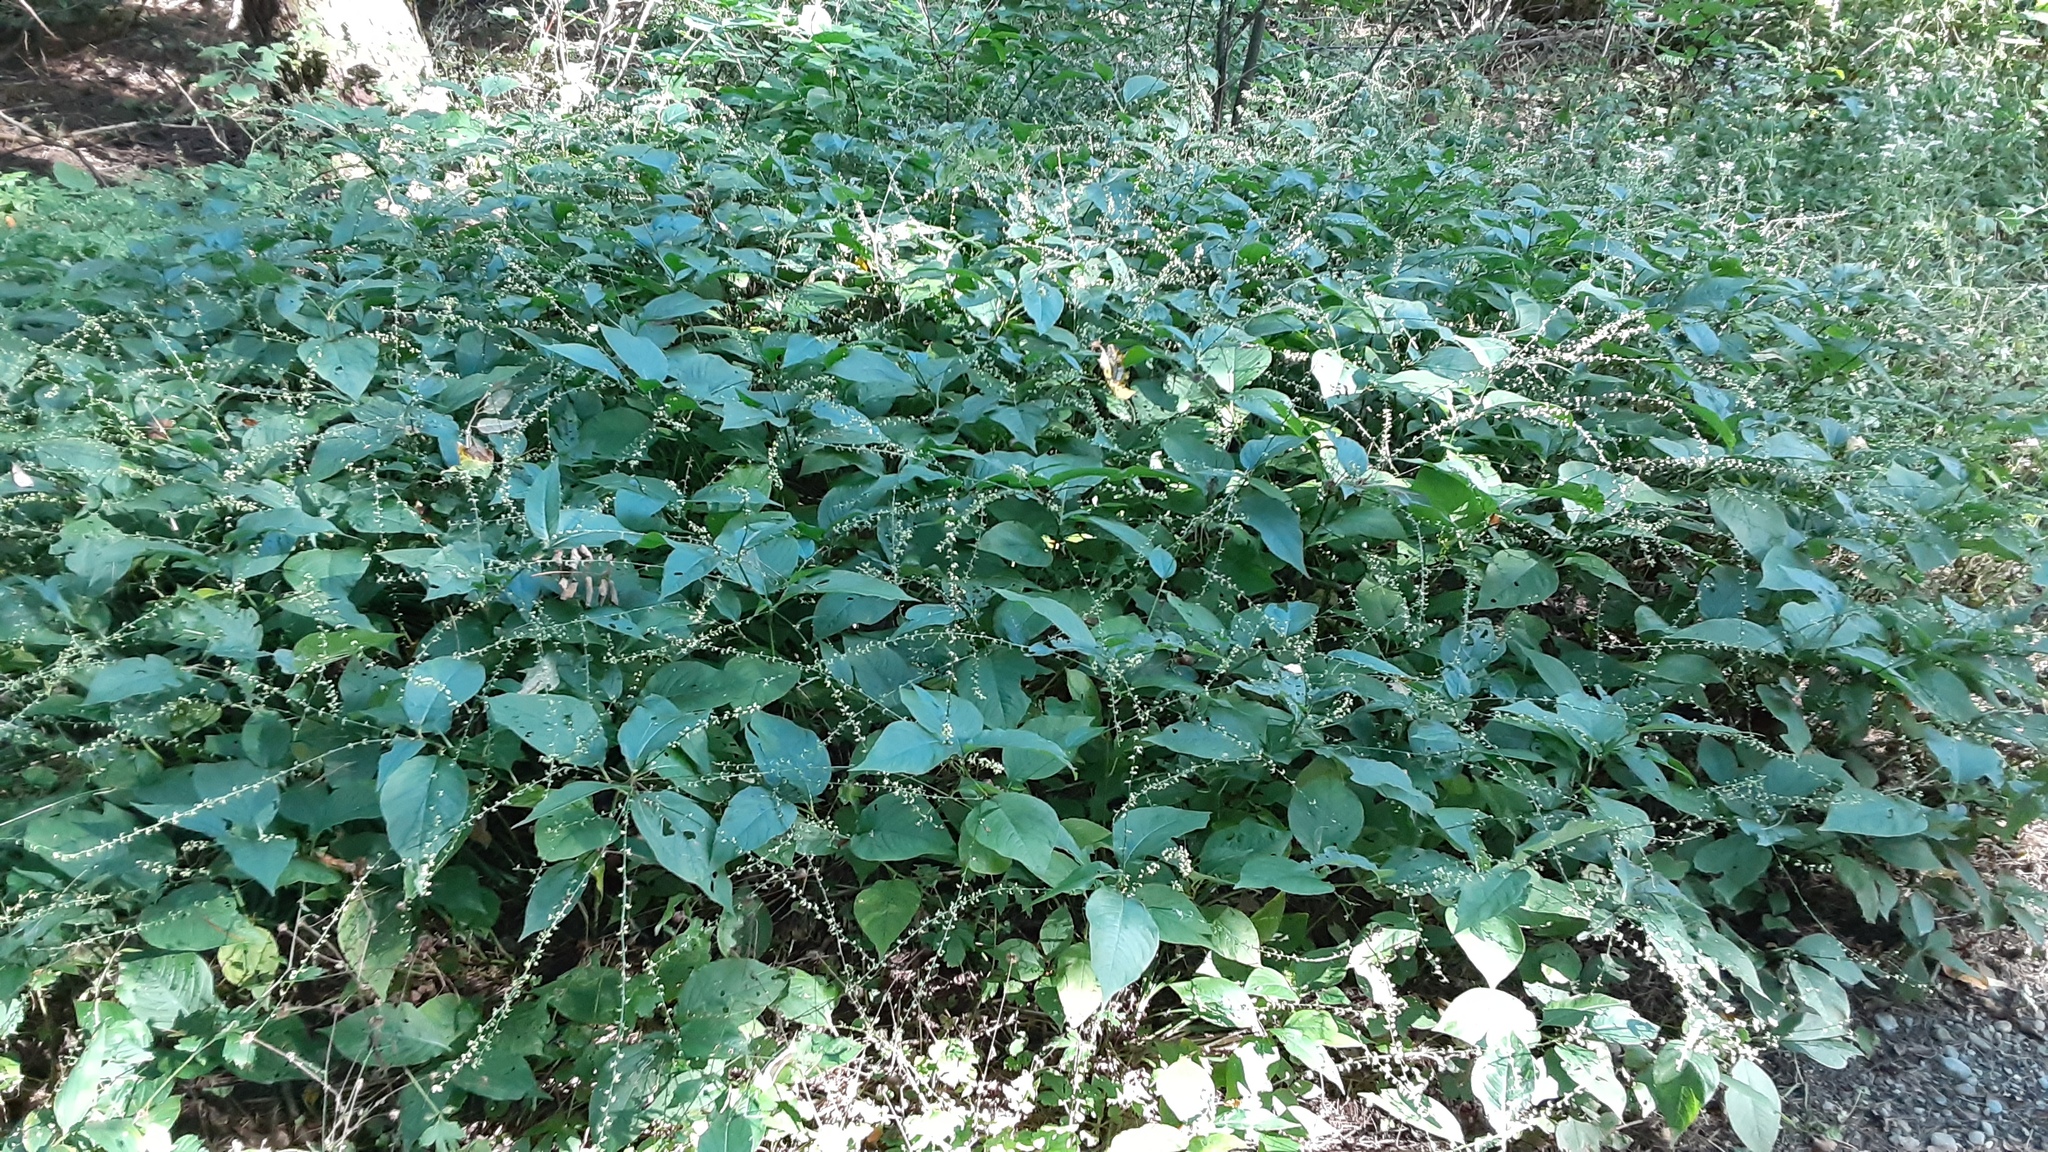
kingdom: Plantae
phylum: Tracheophyta
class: Magnoliopsida
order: Caryophyllales
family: Polygonaceae
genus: Persicaria
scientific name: Persicaria virginiana
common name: Jumpseed
